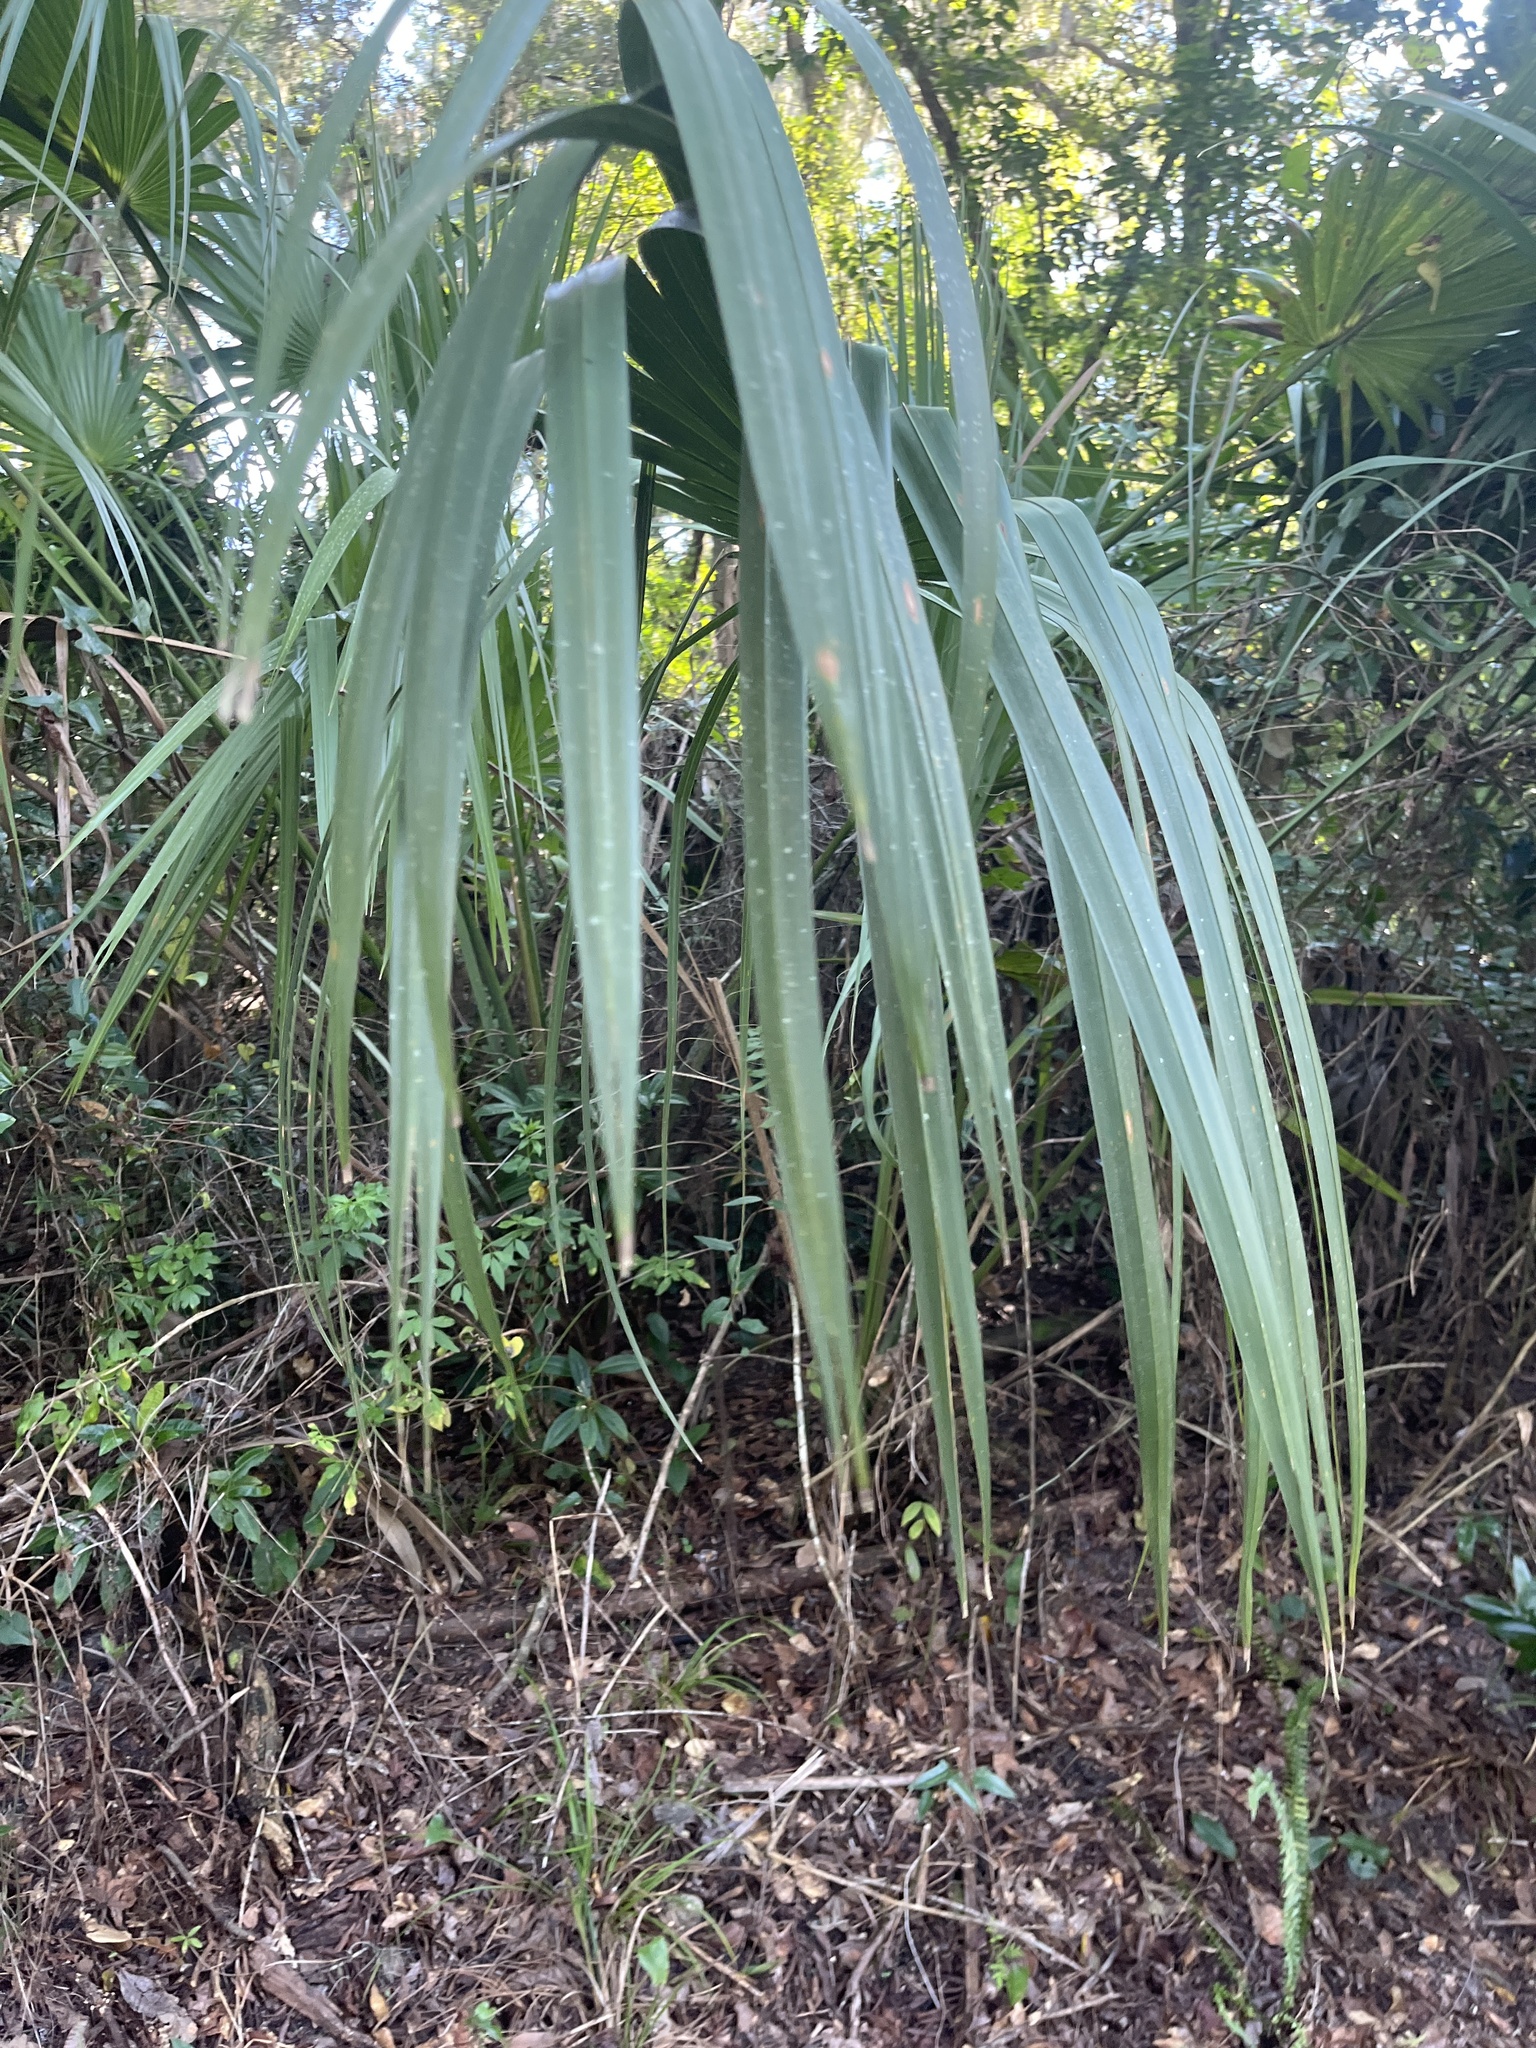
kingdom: Plantae
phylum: Tracheophyta
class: Liliopsida
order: Arecales
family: Arecaceae
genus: Sabal
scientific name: Sabal palmetto
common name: Blue palmetto
